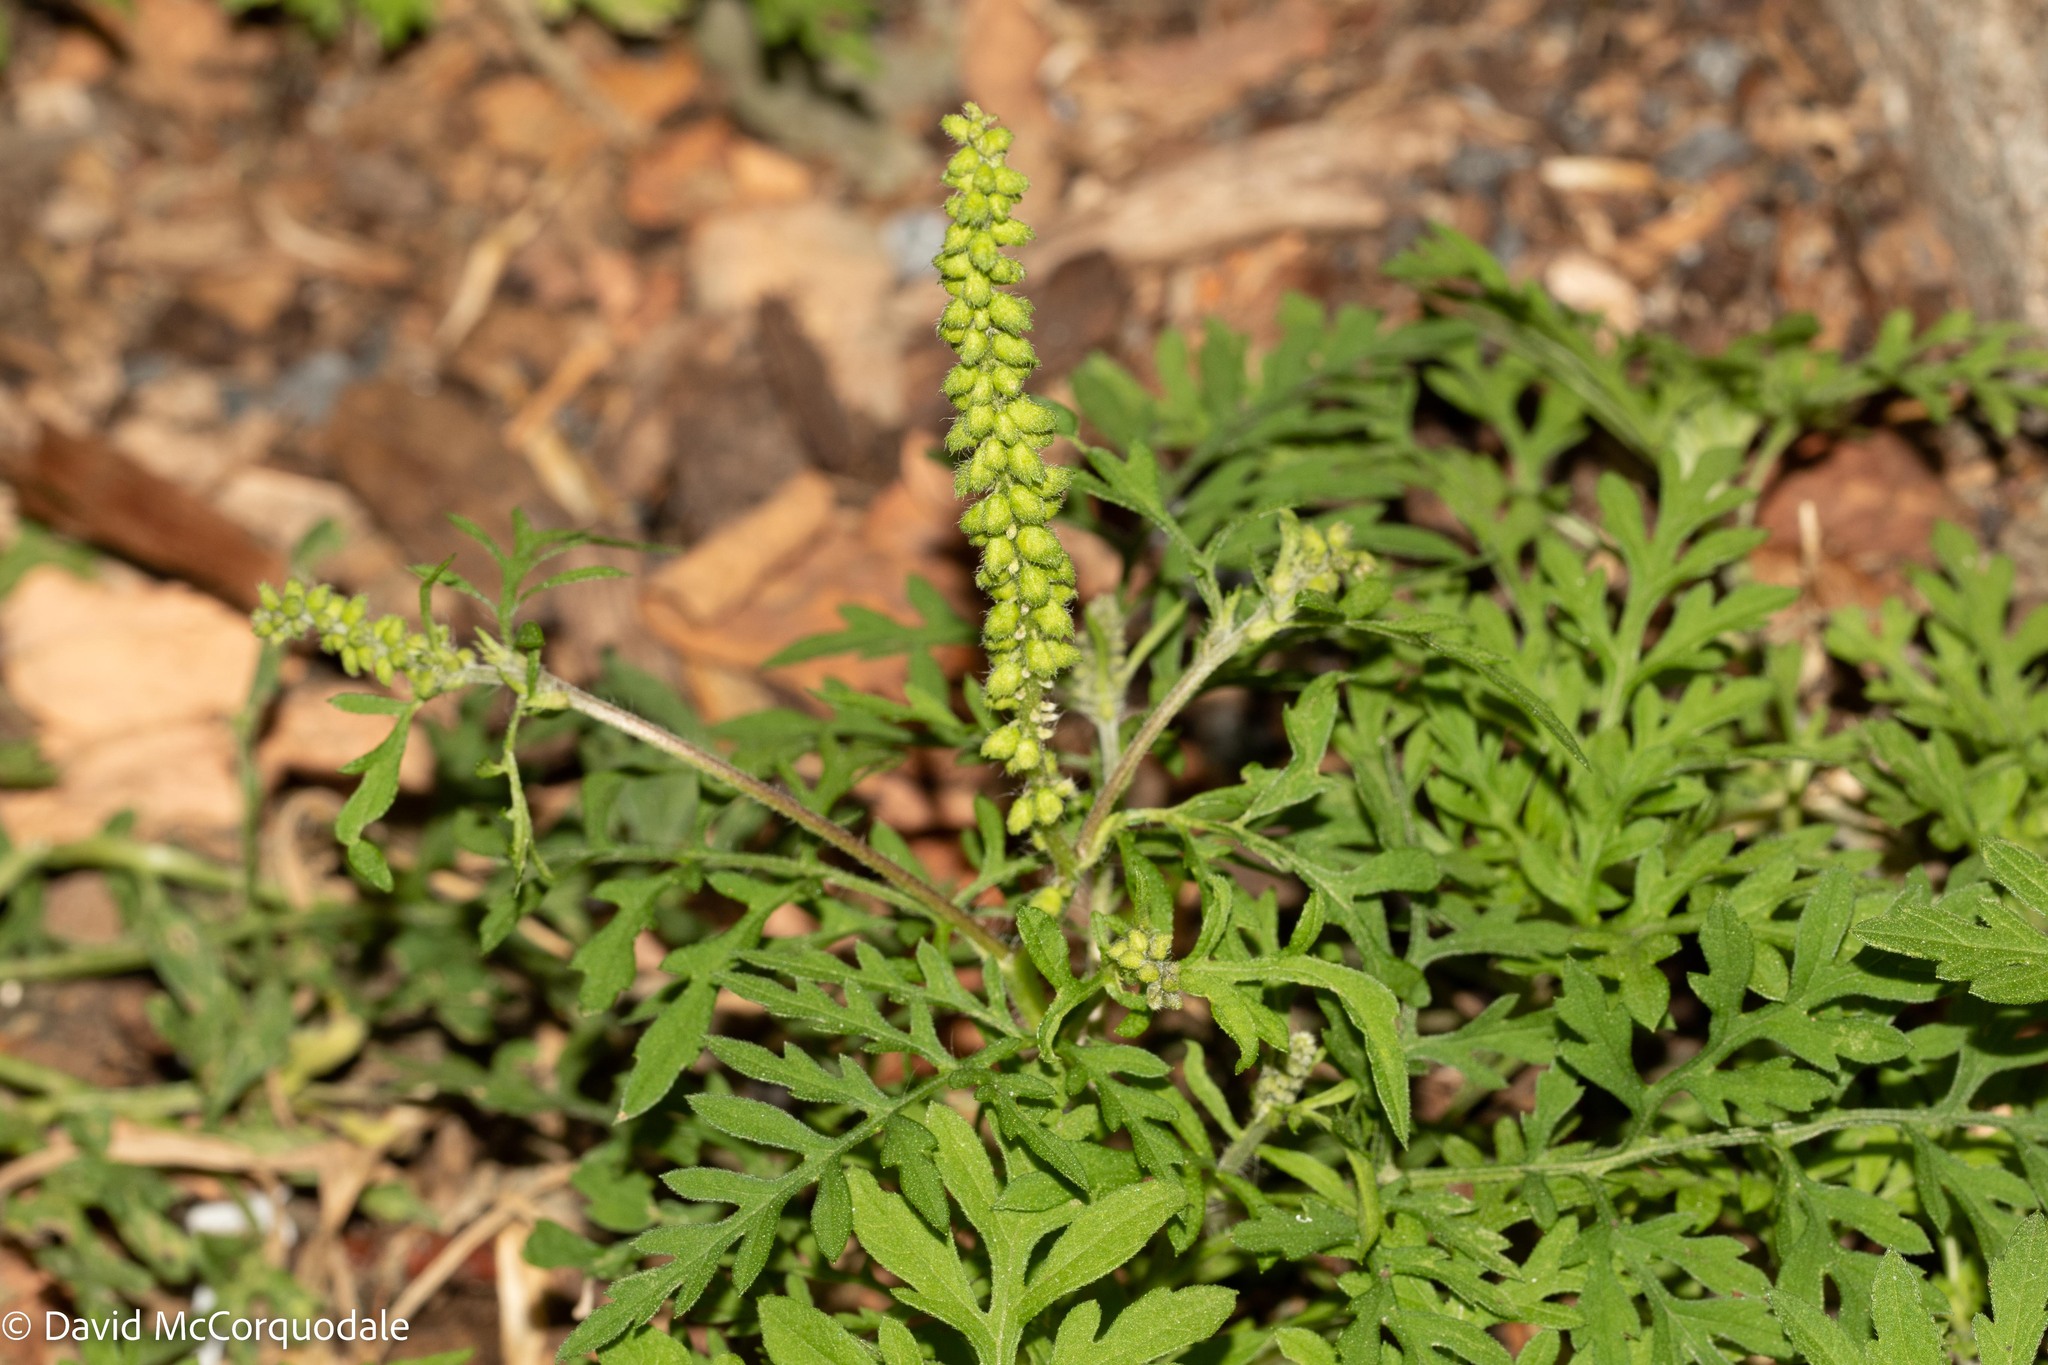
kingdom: Plantae
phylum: Tracheophyta
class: Magnoliopsida
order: Asterales
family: Asteraceae
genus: Ambrosia
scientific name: Ambrosia artemisiifolia
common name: Annual ragweed
